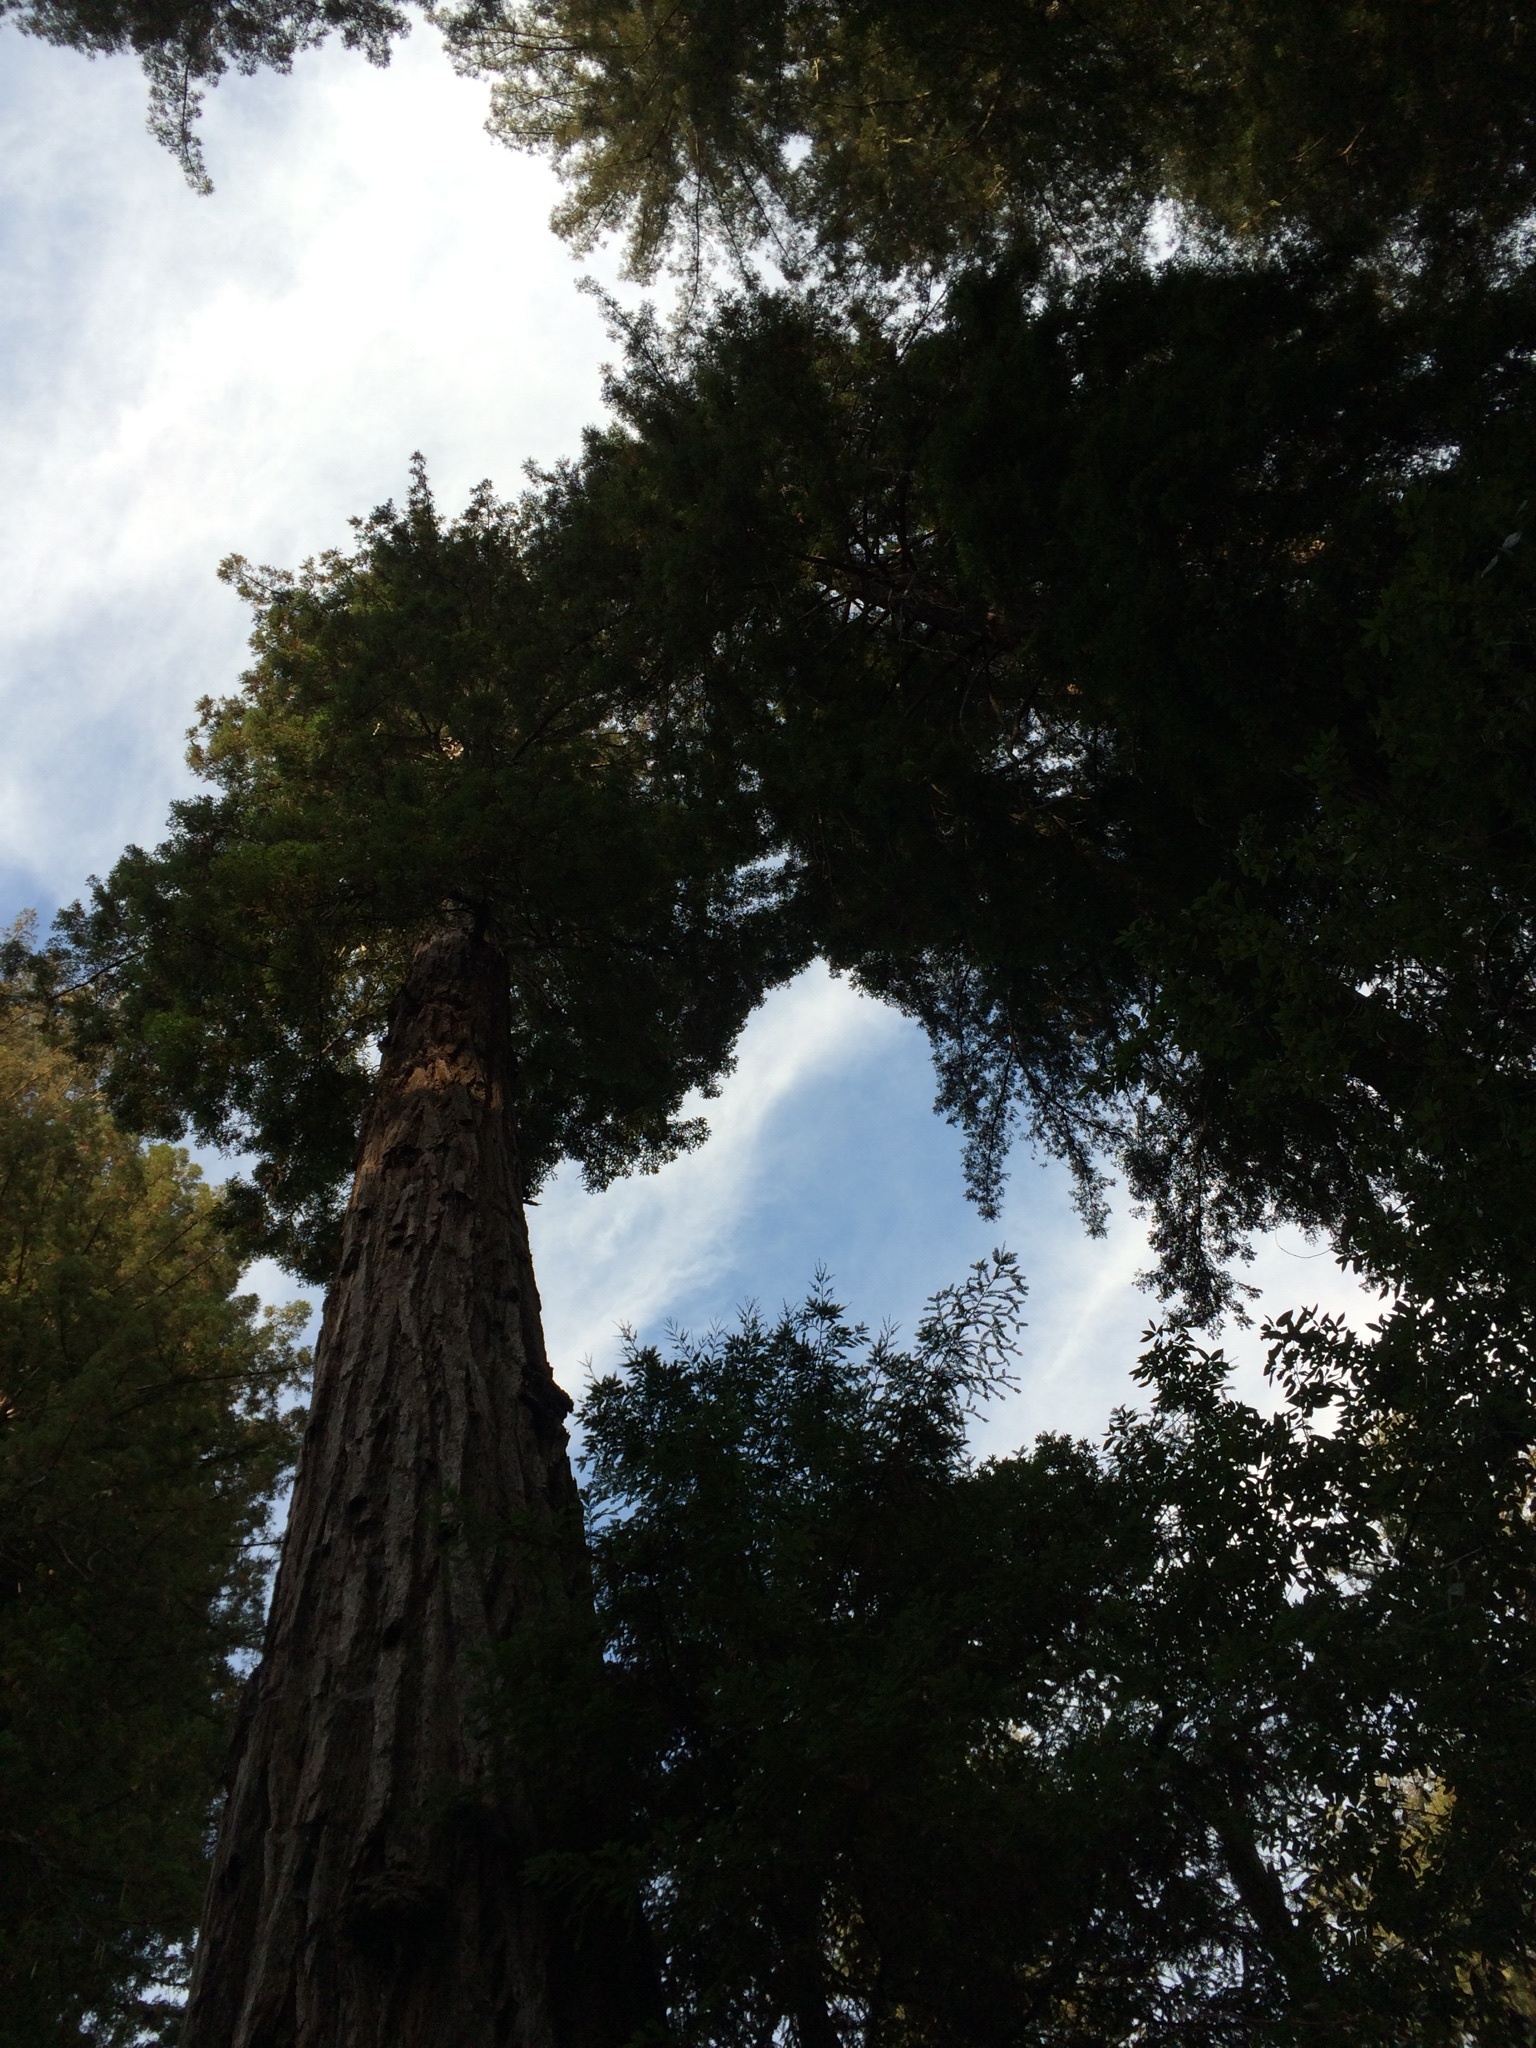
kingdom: Plantae
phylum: Tracheophyta
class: Pinopsida
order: Pinales
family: Cupressaceae
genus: Sequoia
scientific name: Sequoia sempervirens
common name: Coast redwood
